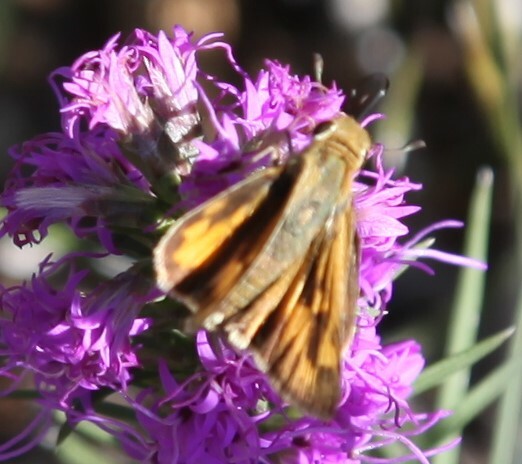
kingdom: Animalia
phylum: Arthropoda
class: Insecta
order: Lepidoptera
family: Hesperiidae
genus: Hylephila
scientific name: Hylephila phyleus
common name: Fiery skipper
